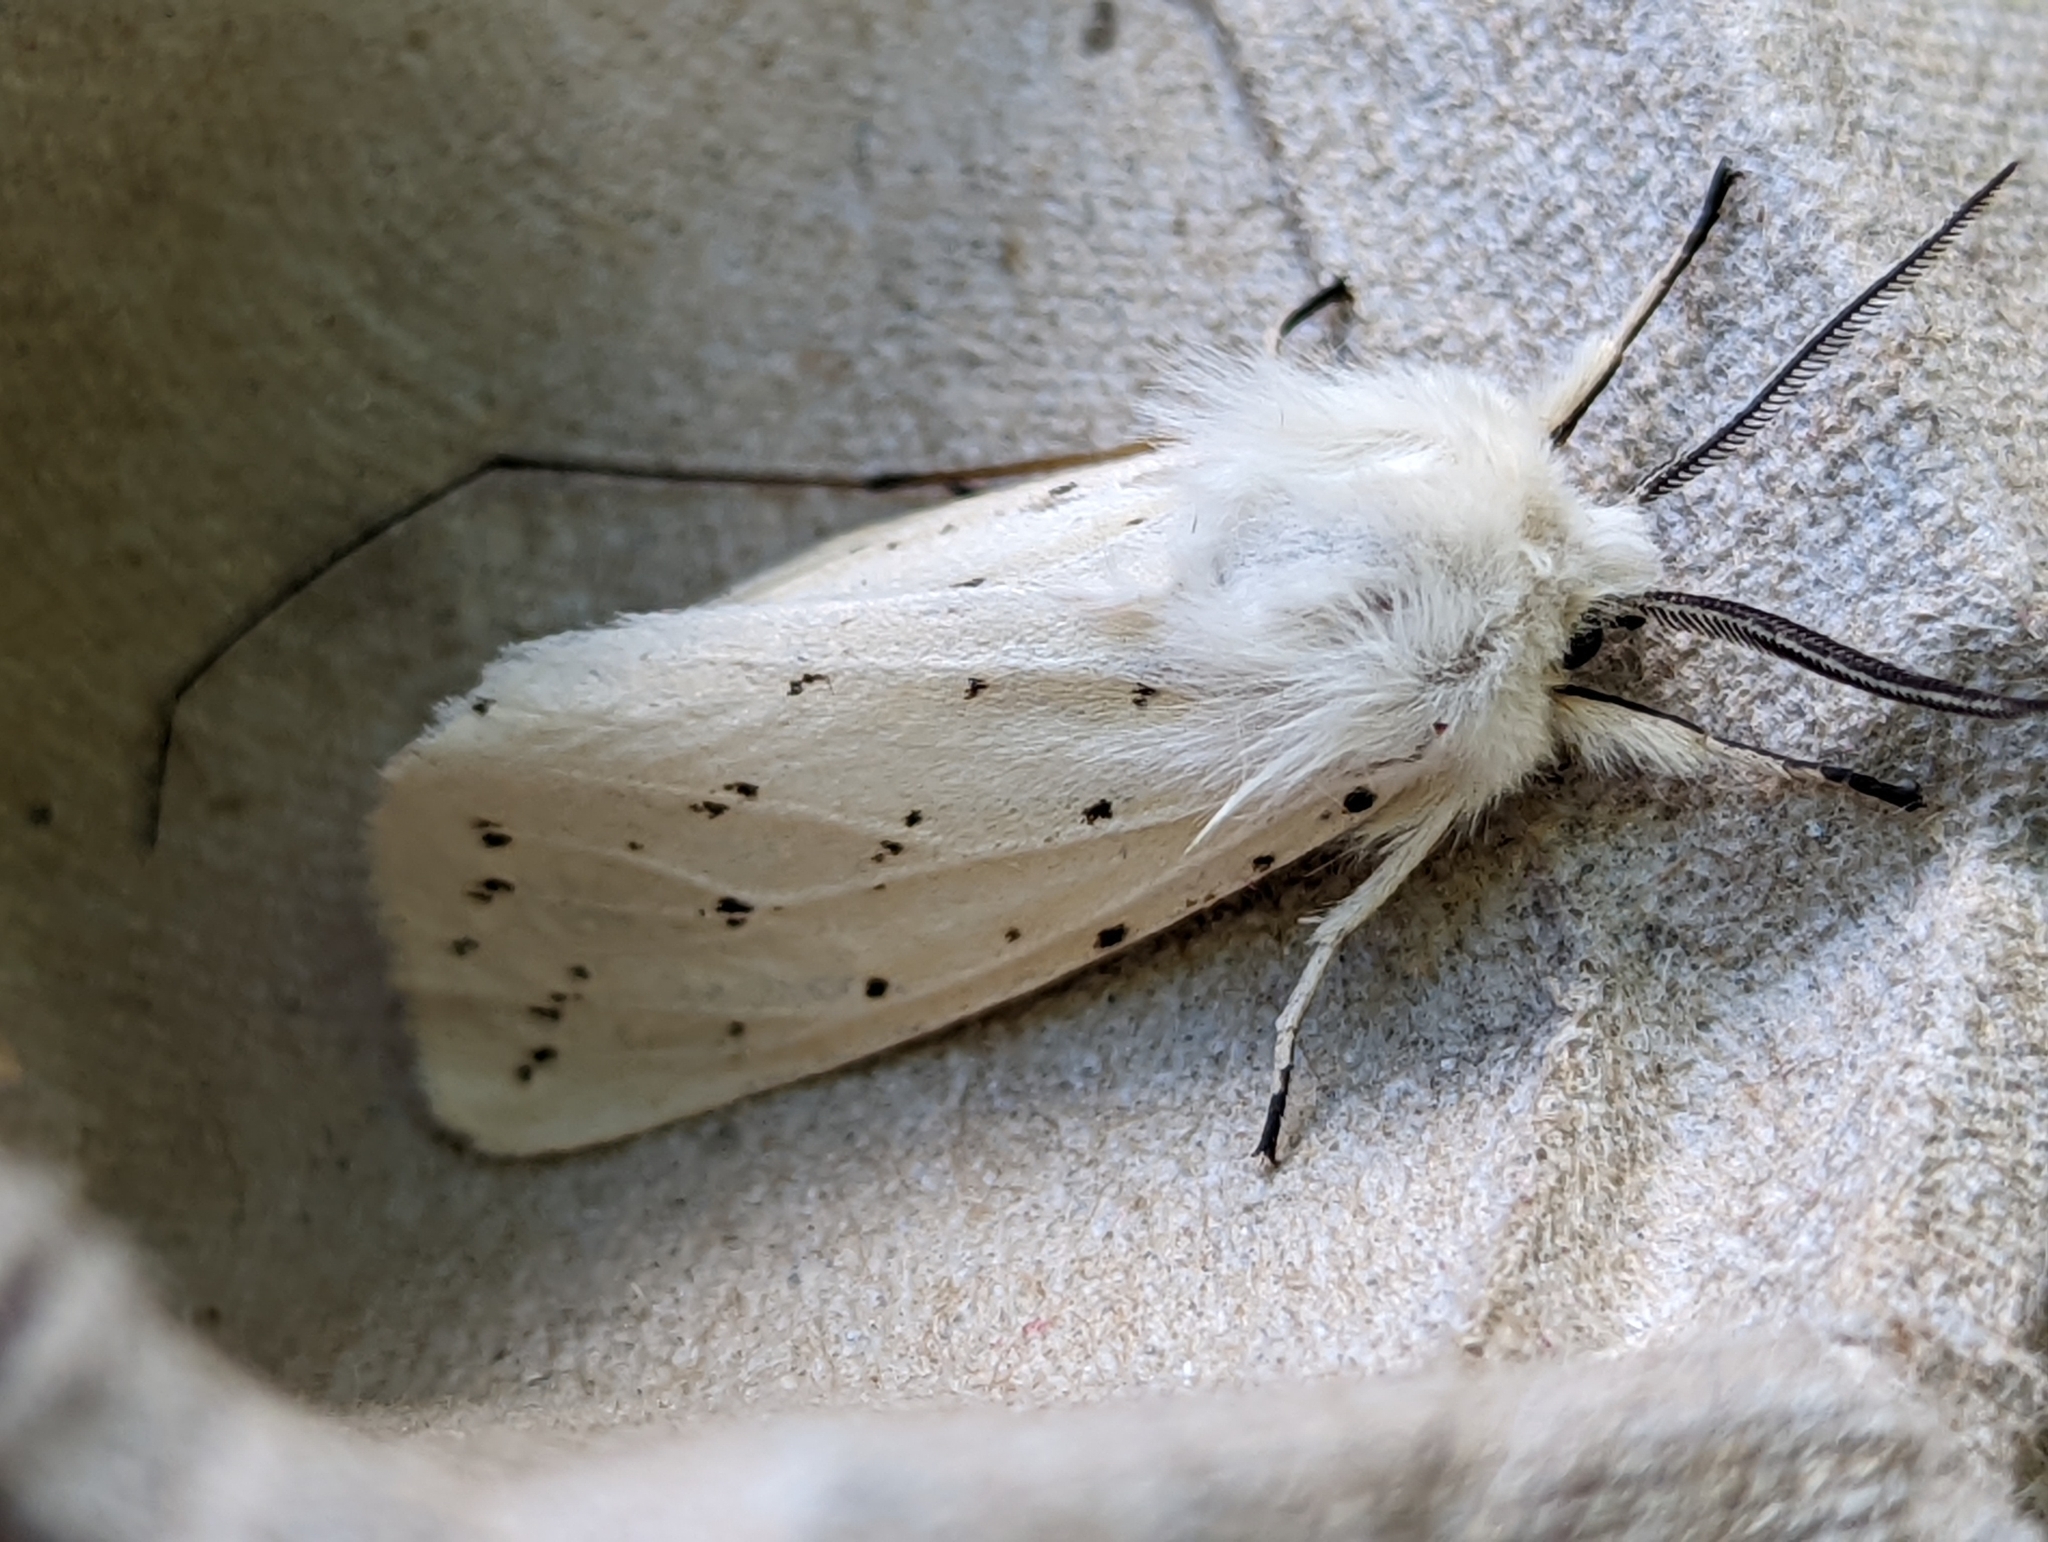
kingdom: Animalia
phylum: Arthropoda
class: Insecta
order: Lepidoptera
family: Erebidae
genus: Spilosoma
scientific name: Spilosoma lubricipeda
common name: White ermine
